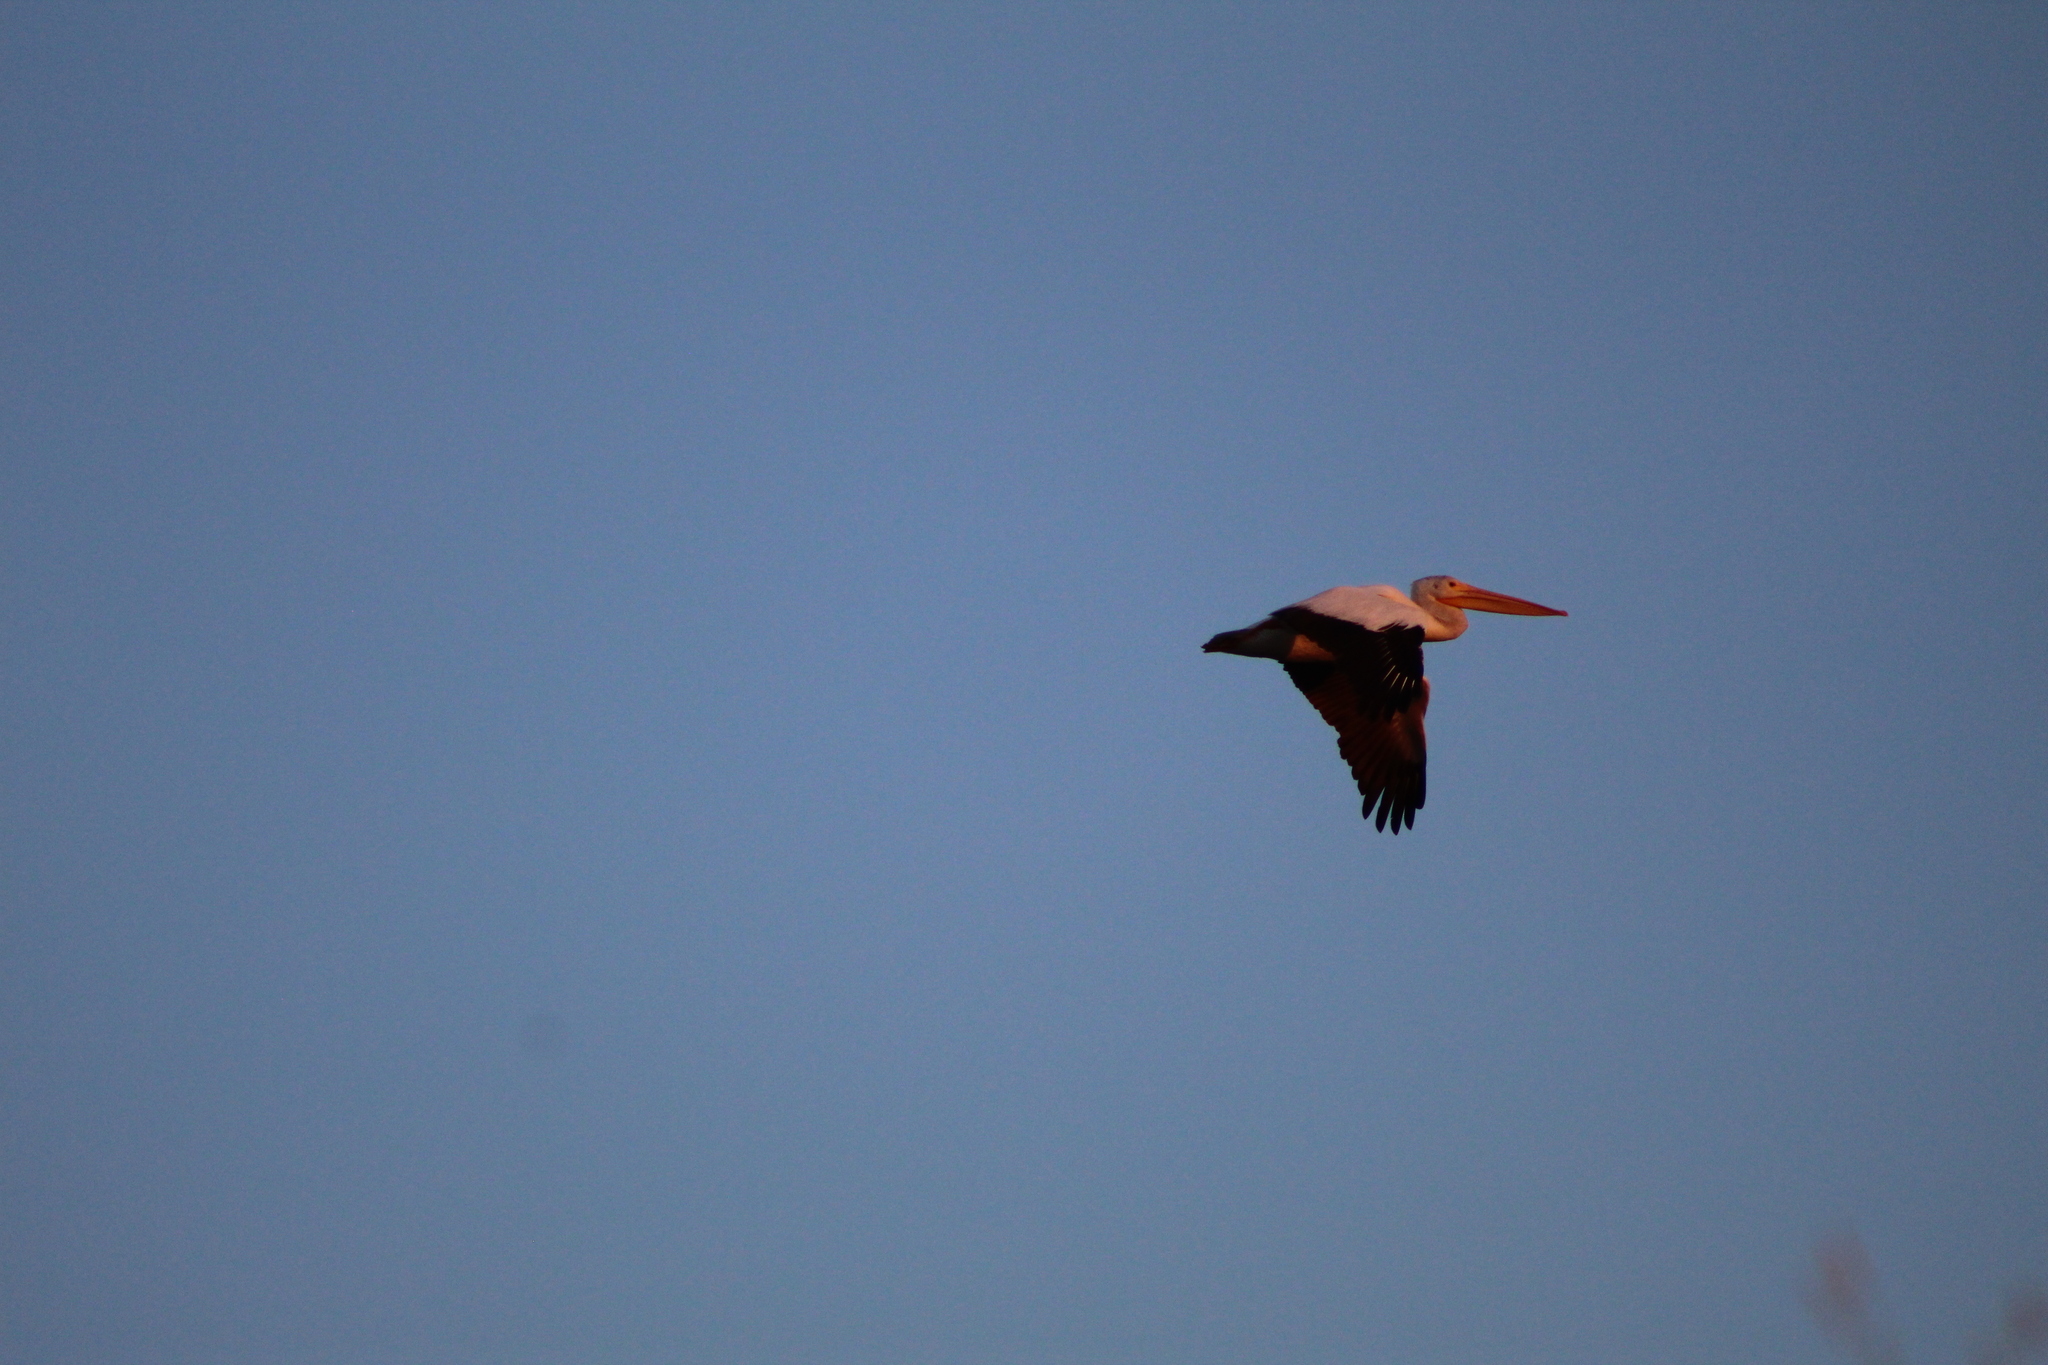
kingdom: Animalia
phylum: Chordata
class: Aves
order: Pelecaniformes
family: Pelecanidae
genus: Pelecanus
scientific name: Pelecanus erythrorhynchos
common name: American white pelican
